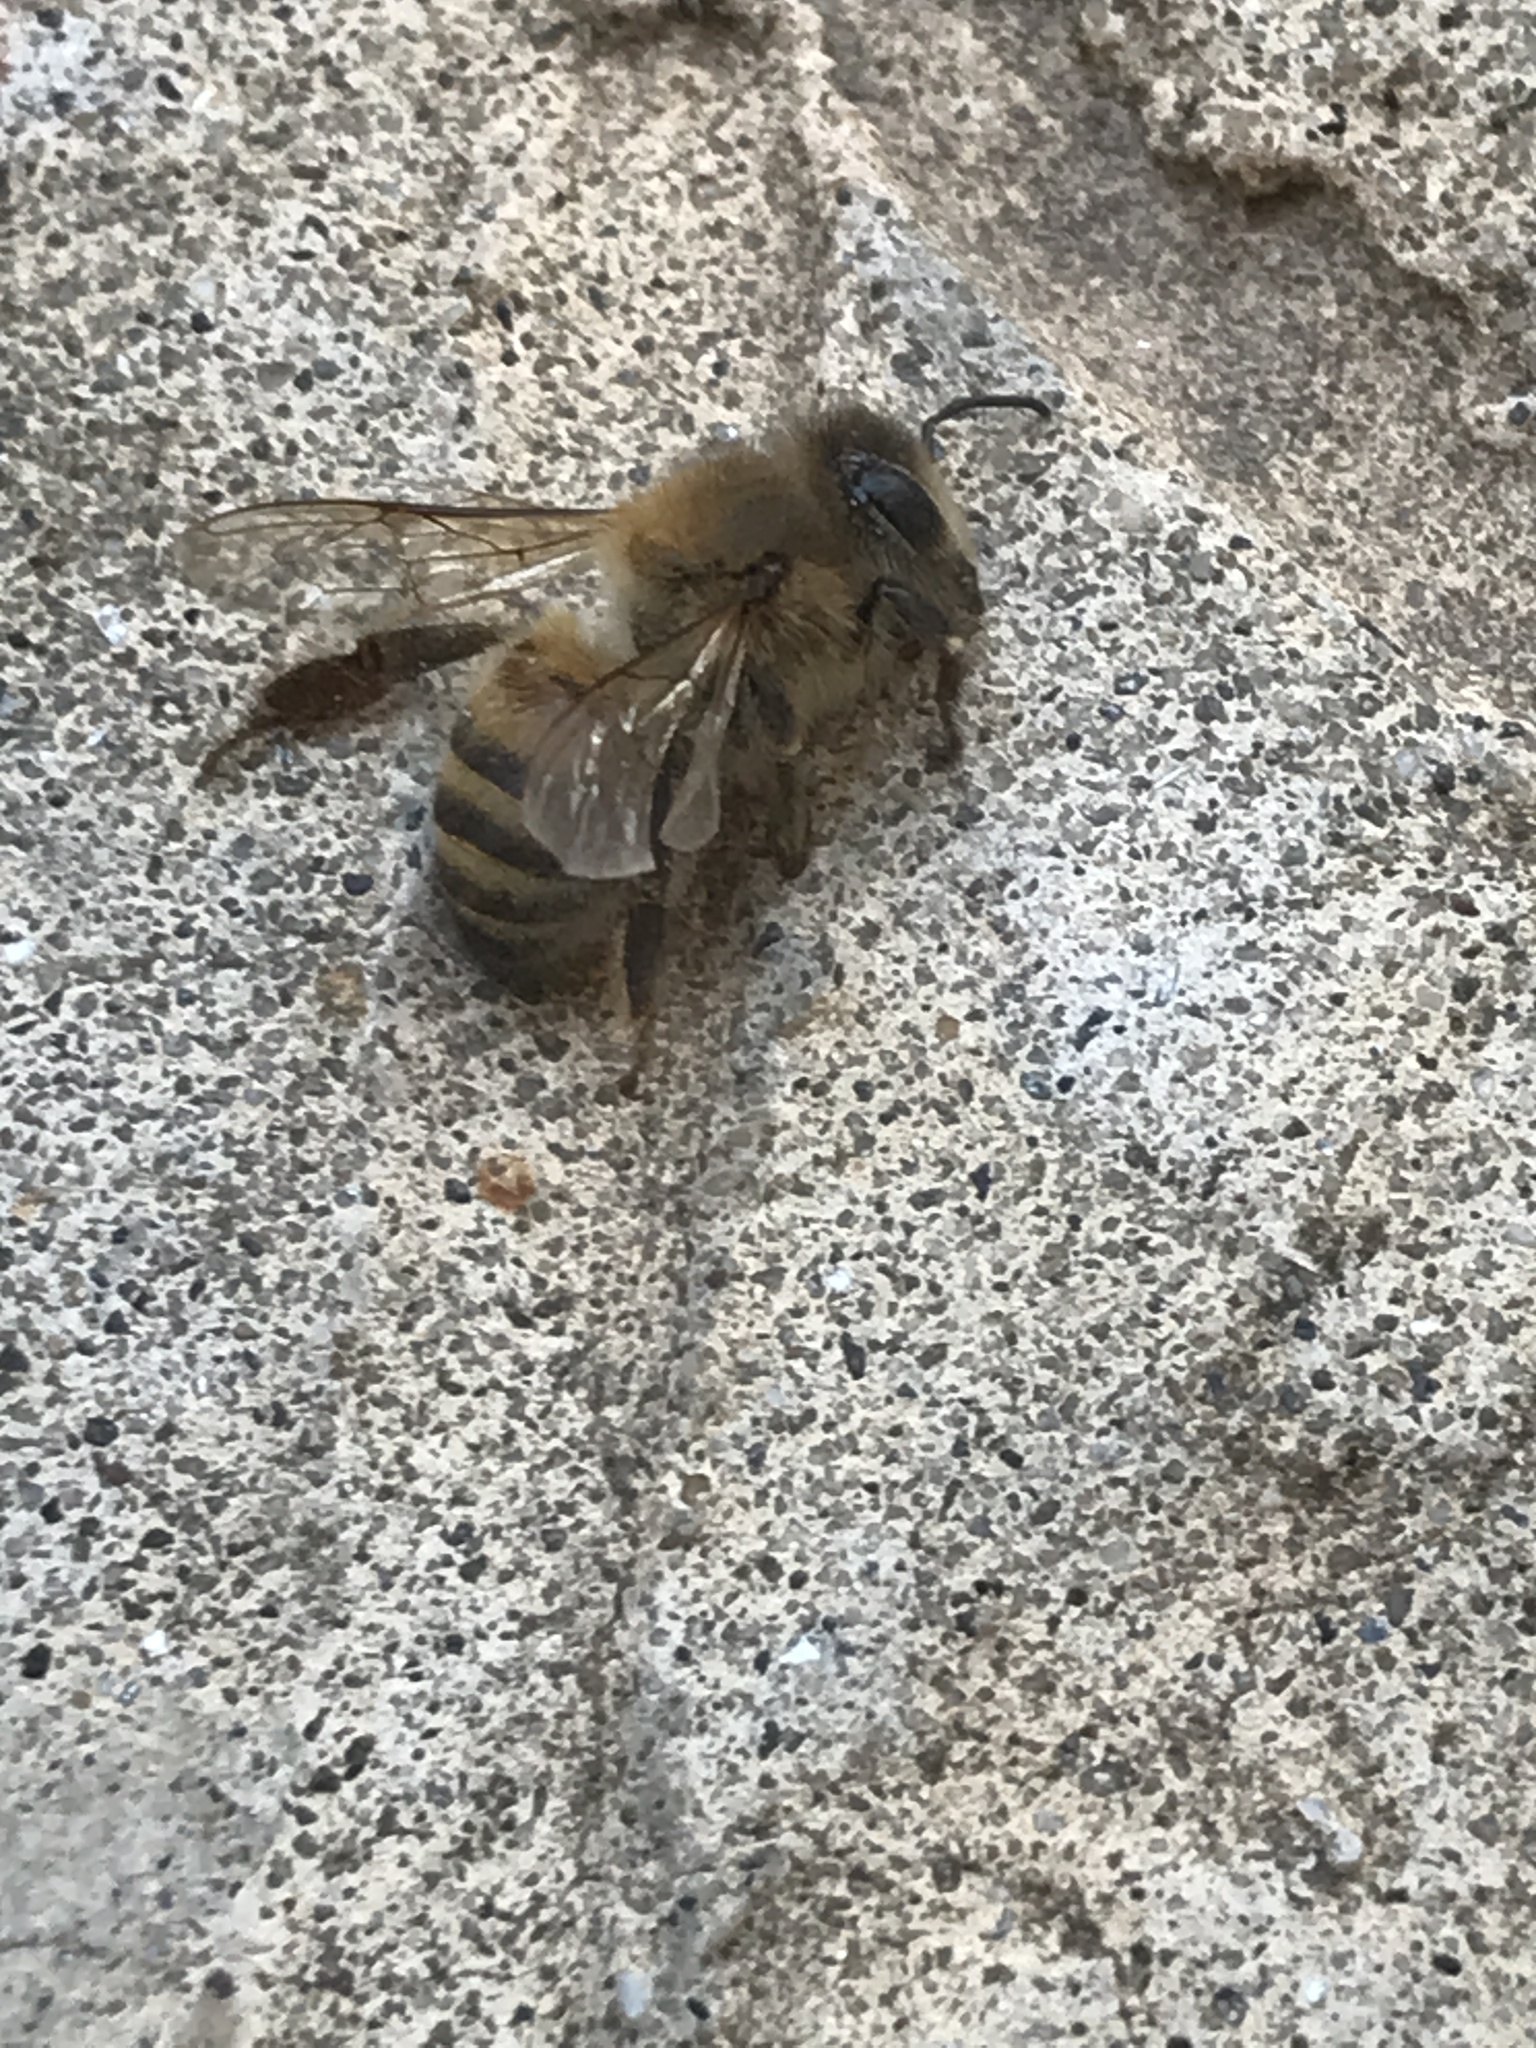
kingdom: Animalia
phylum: Arthropoda
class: Insecta
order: Hymenoptera
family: Apidae
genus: Apis
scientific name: Apis mellifera
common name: Honey bee
